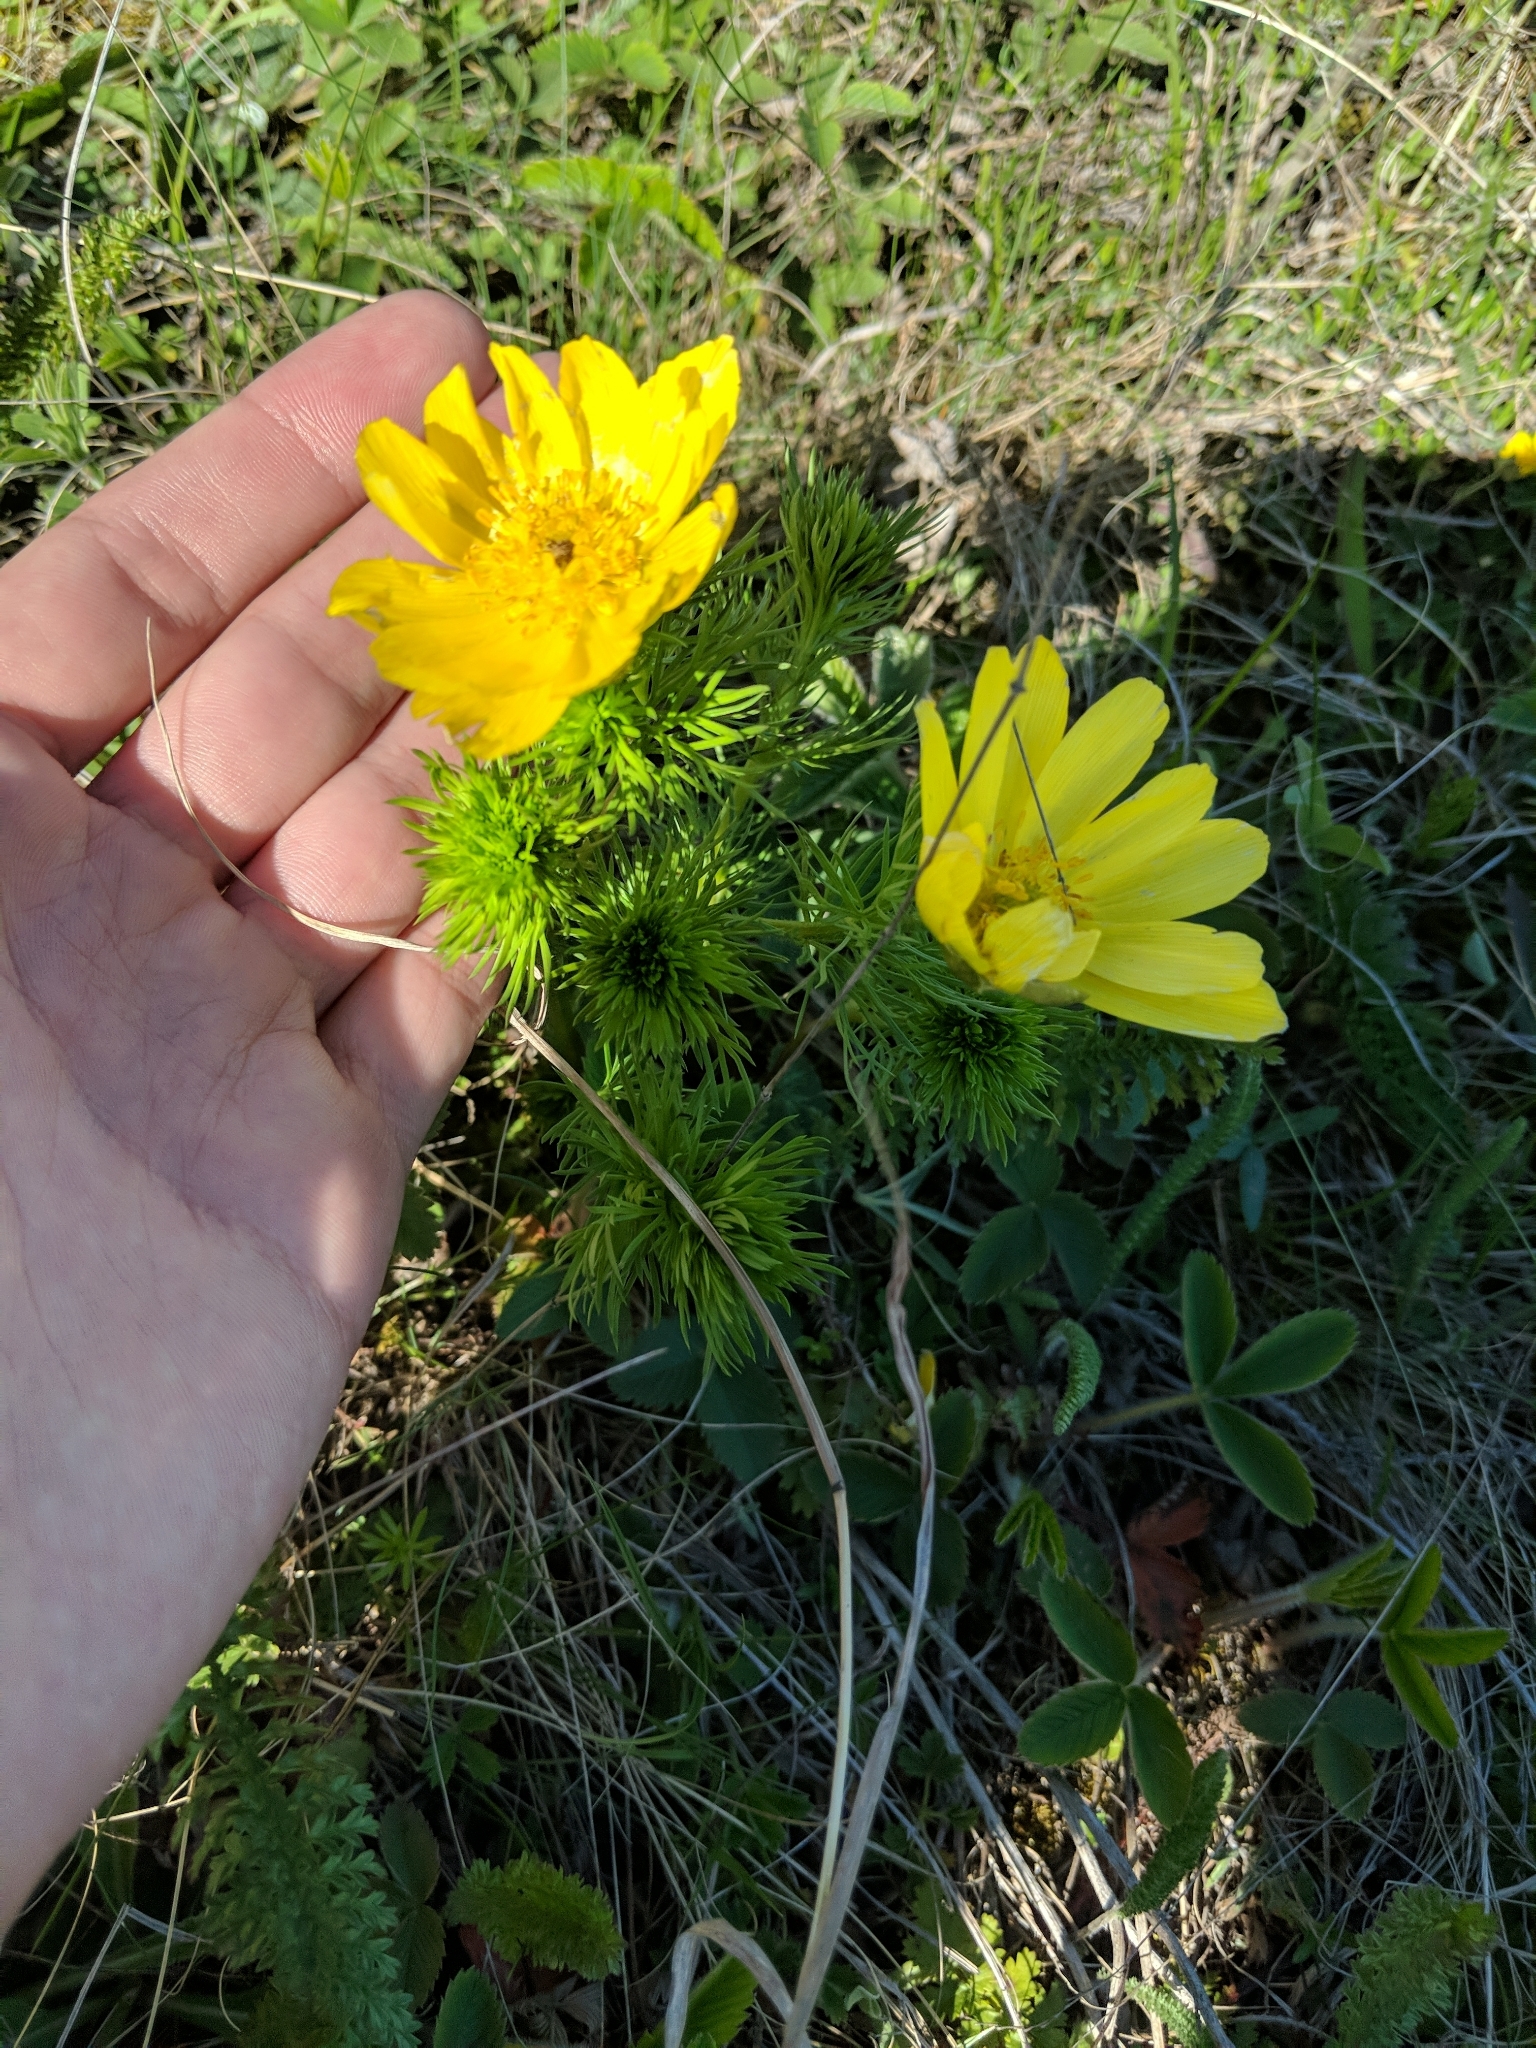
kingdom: Plantae
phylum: Tracheophyta
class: Magnoliopsida
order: Ranunculales
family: Ranunculaceae
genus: Adonis
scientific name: Adonis vernalis
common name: Yellow pheasants-eye
